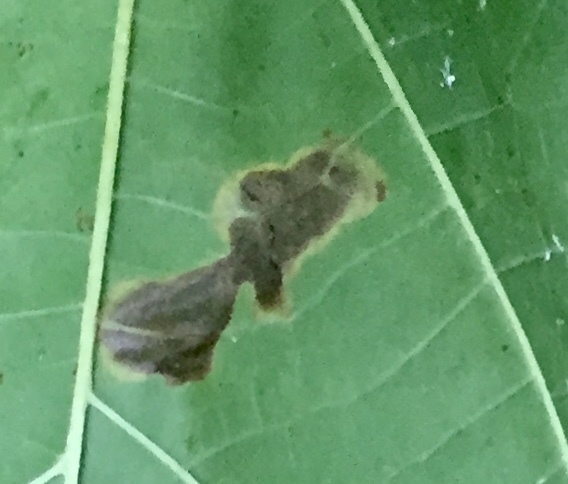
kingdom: Animalia
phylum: Arthropoda
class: Insecta
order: Lepidoptera
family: Nepticulidae
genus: Ectoedemia
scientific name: Ectoedemia platanella
